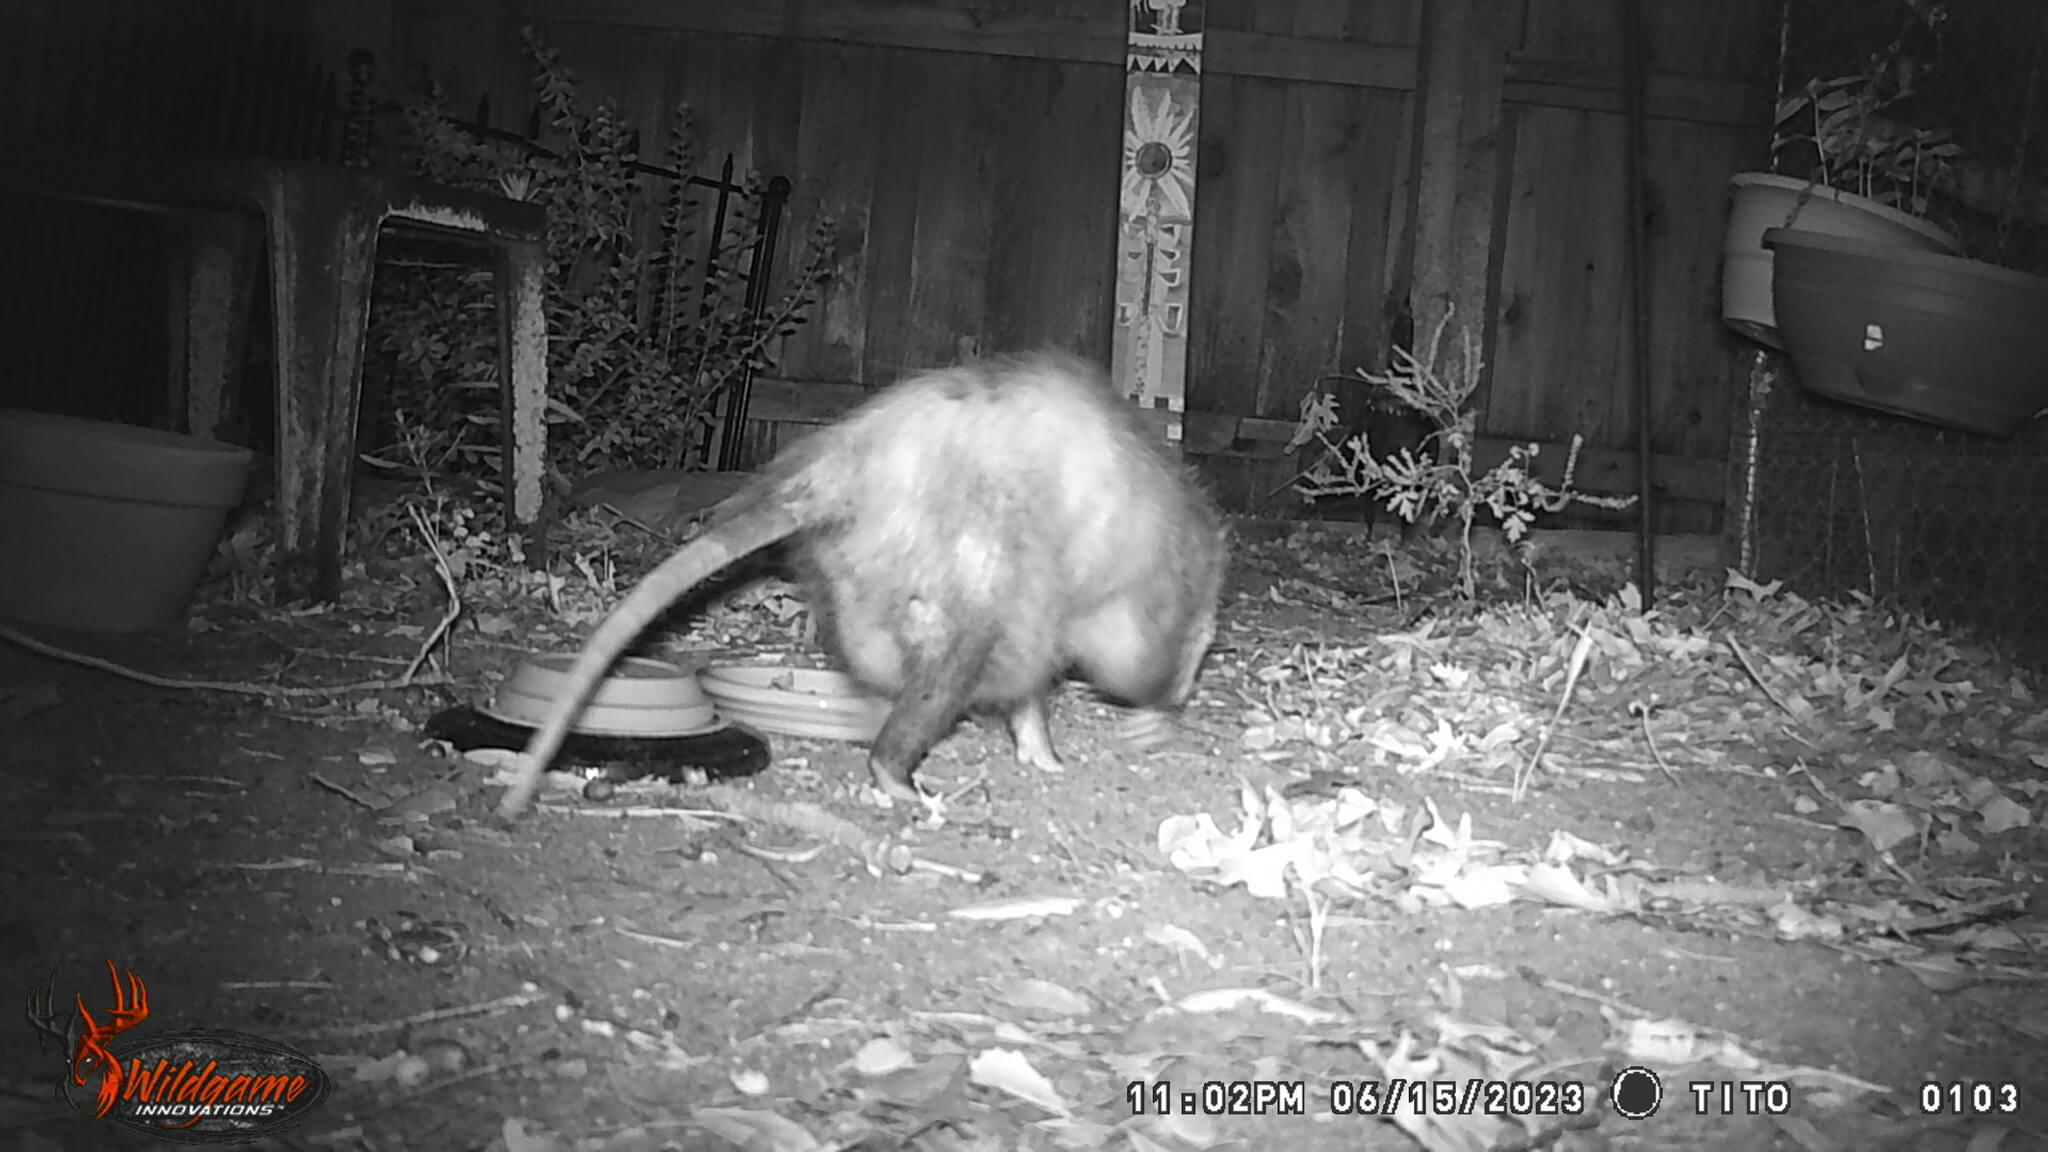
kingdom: Animalia
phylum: Chordata
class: Mammalia
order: Didelphimorphia
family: Didelphidae
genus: Didelphis
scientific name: Didelphis virginiana
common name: Virginia opossum
